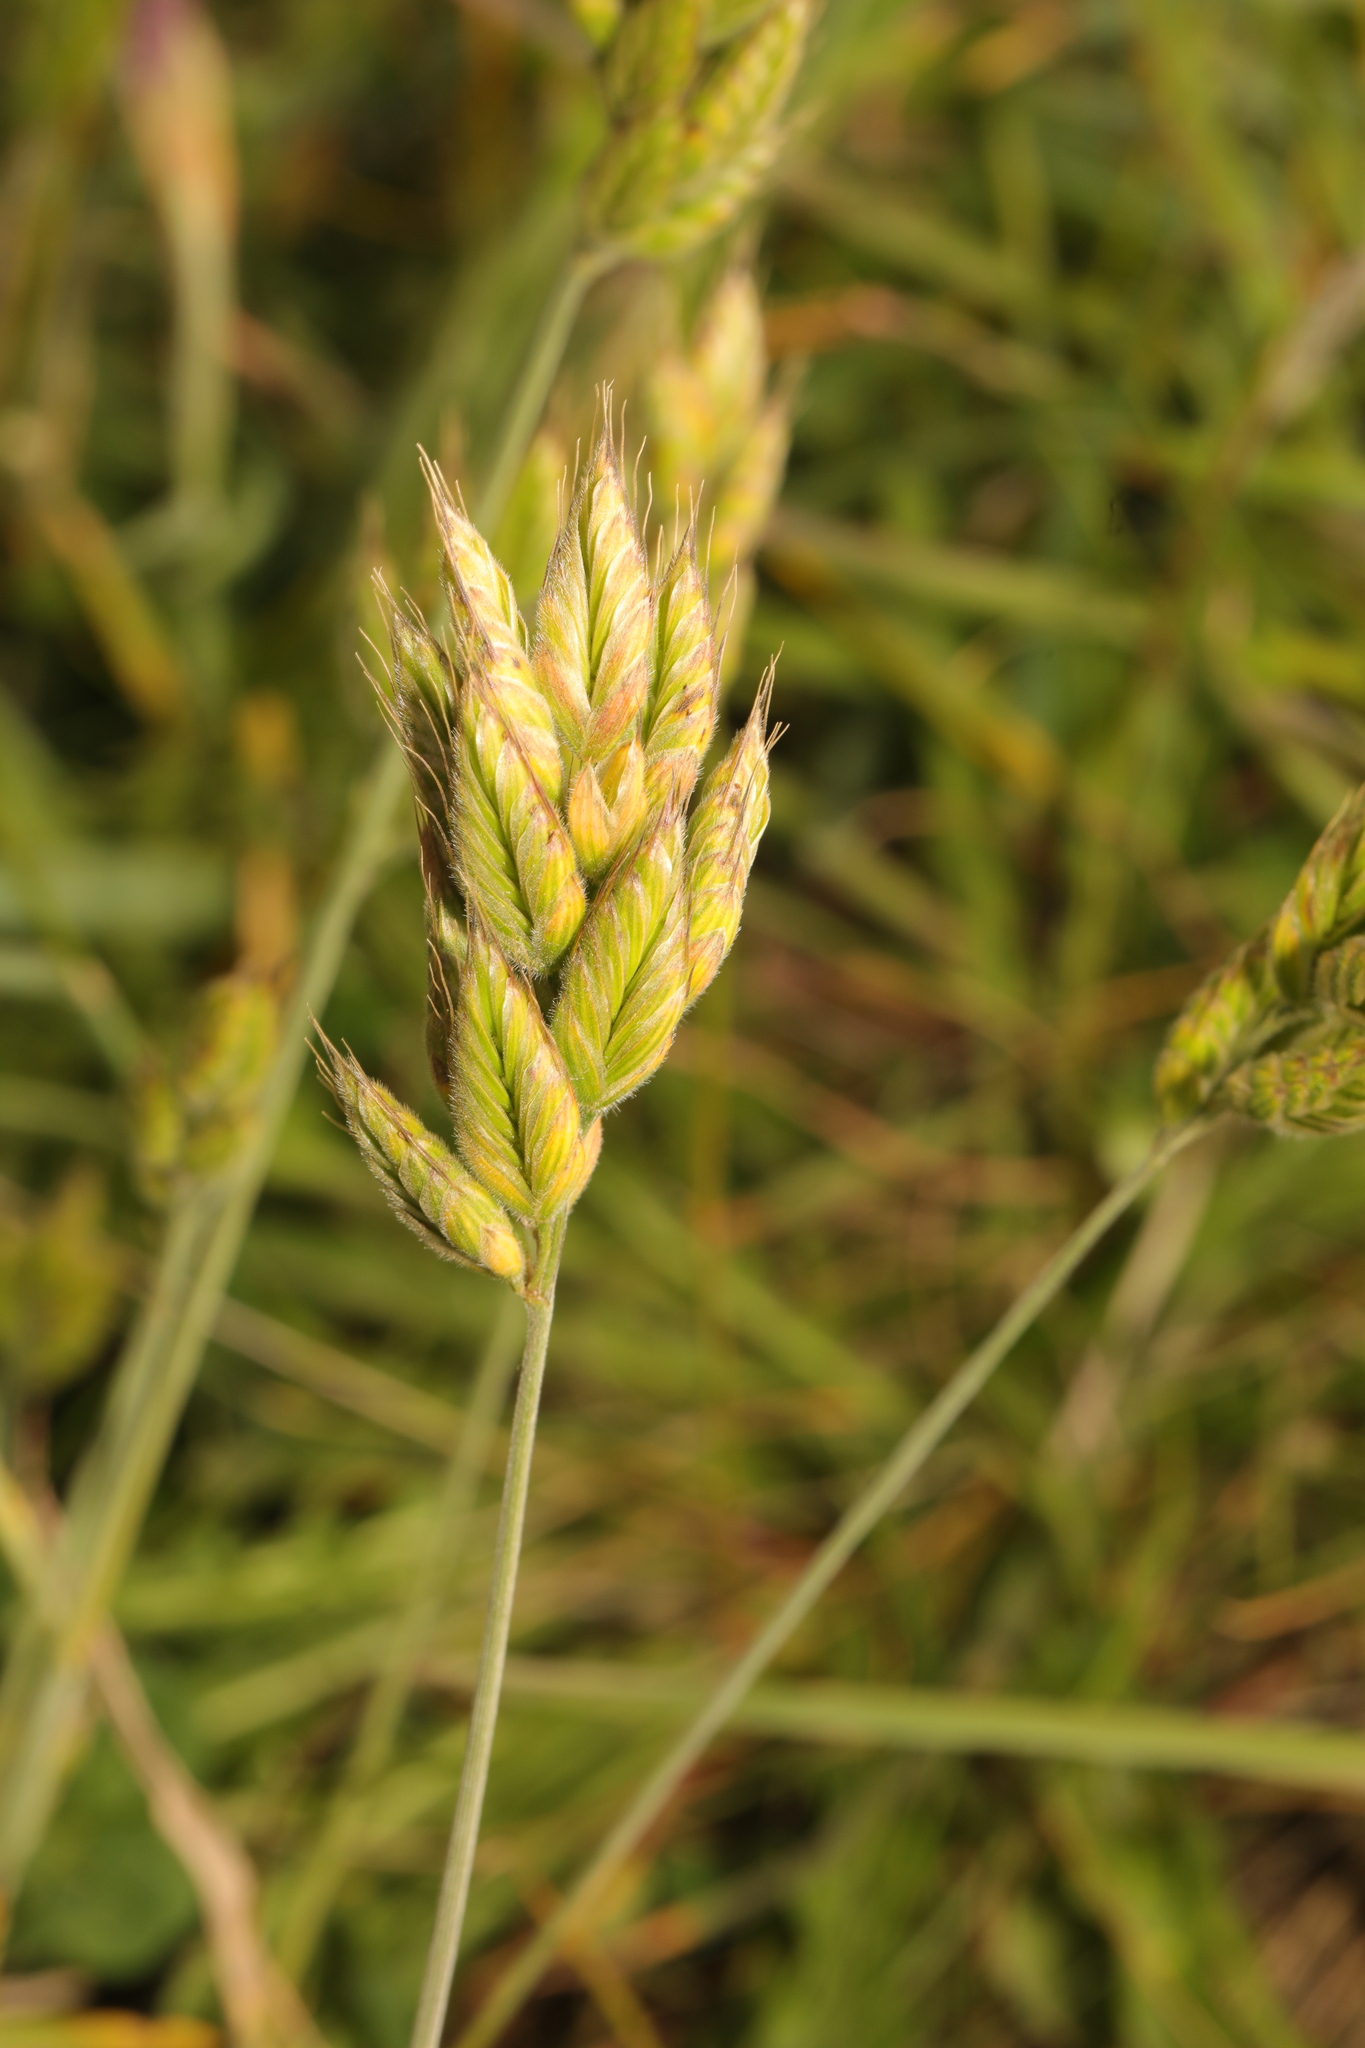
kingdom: Plantae
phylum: Tracheophyta
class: Liliopsida
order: Poales
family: Poaceae
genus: Bromus
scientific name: Bromus hordeaceus
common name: Soft brome
